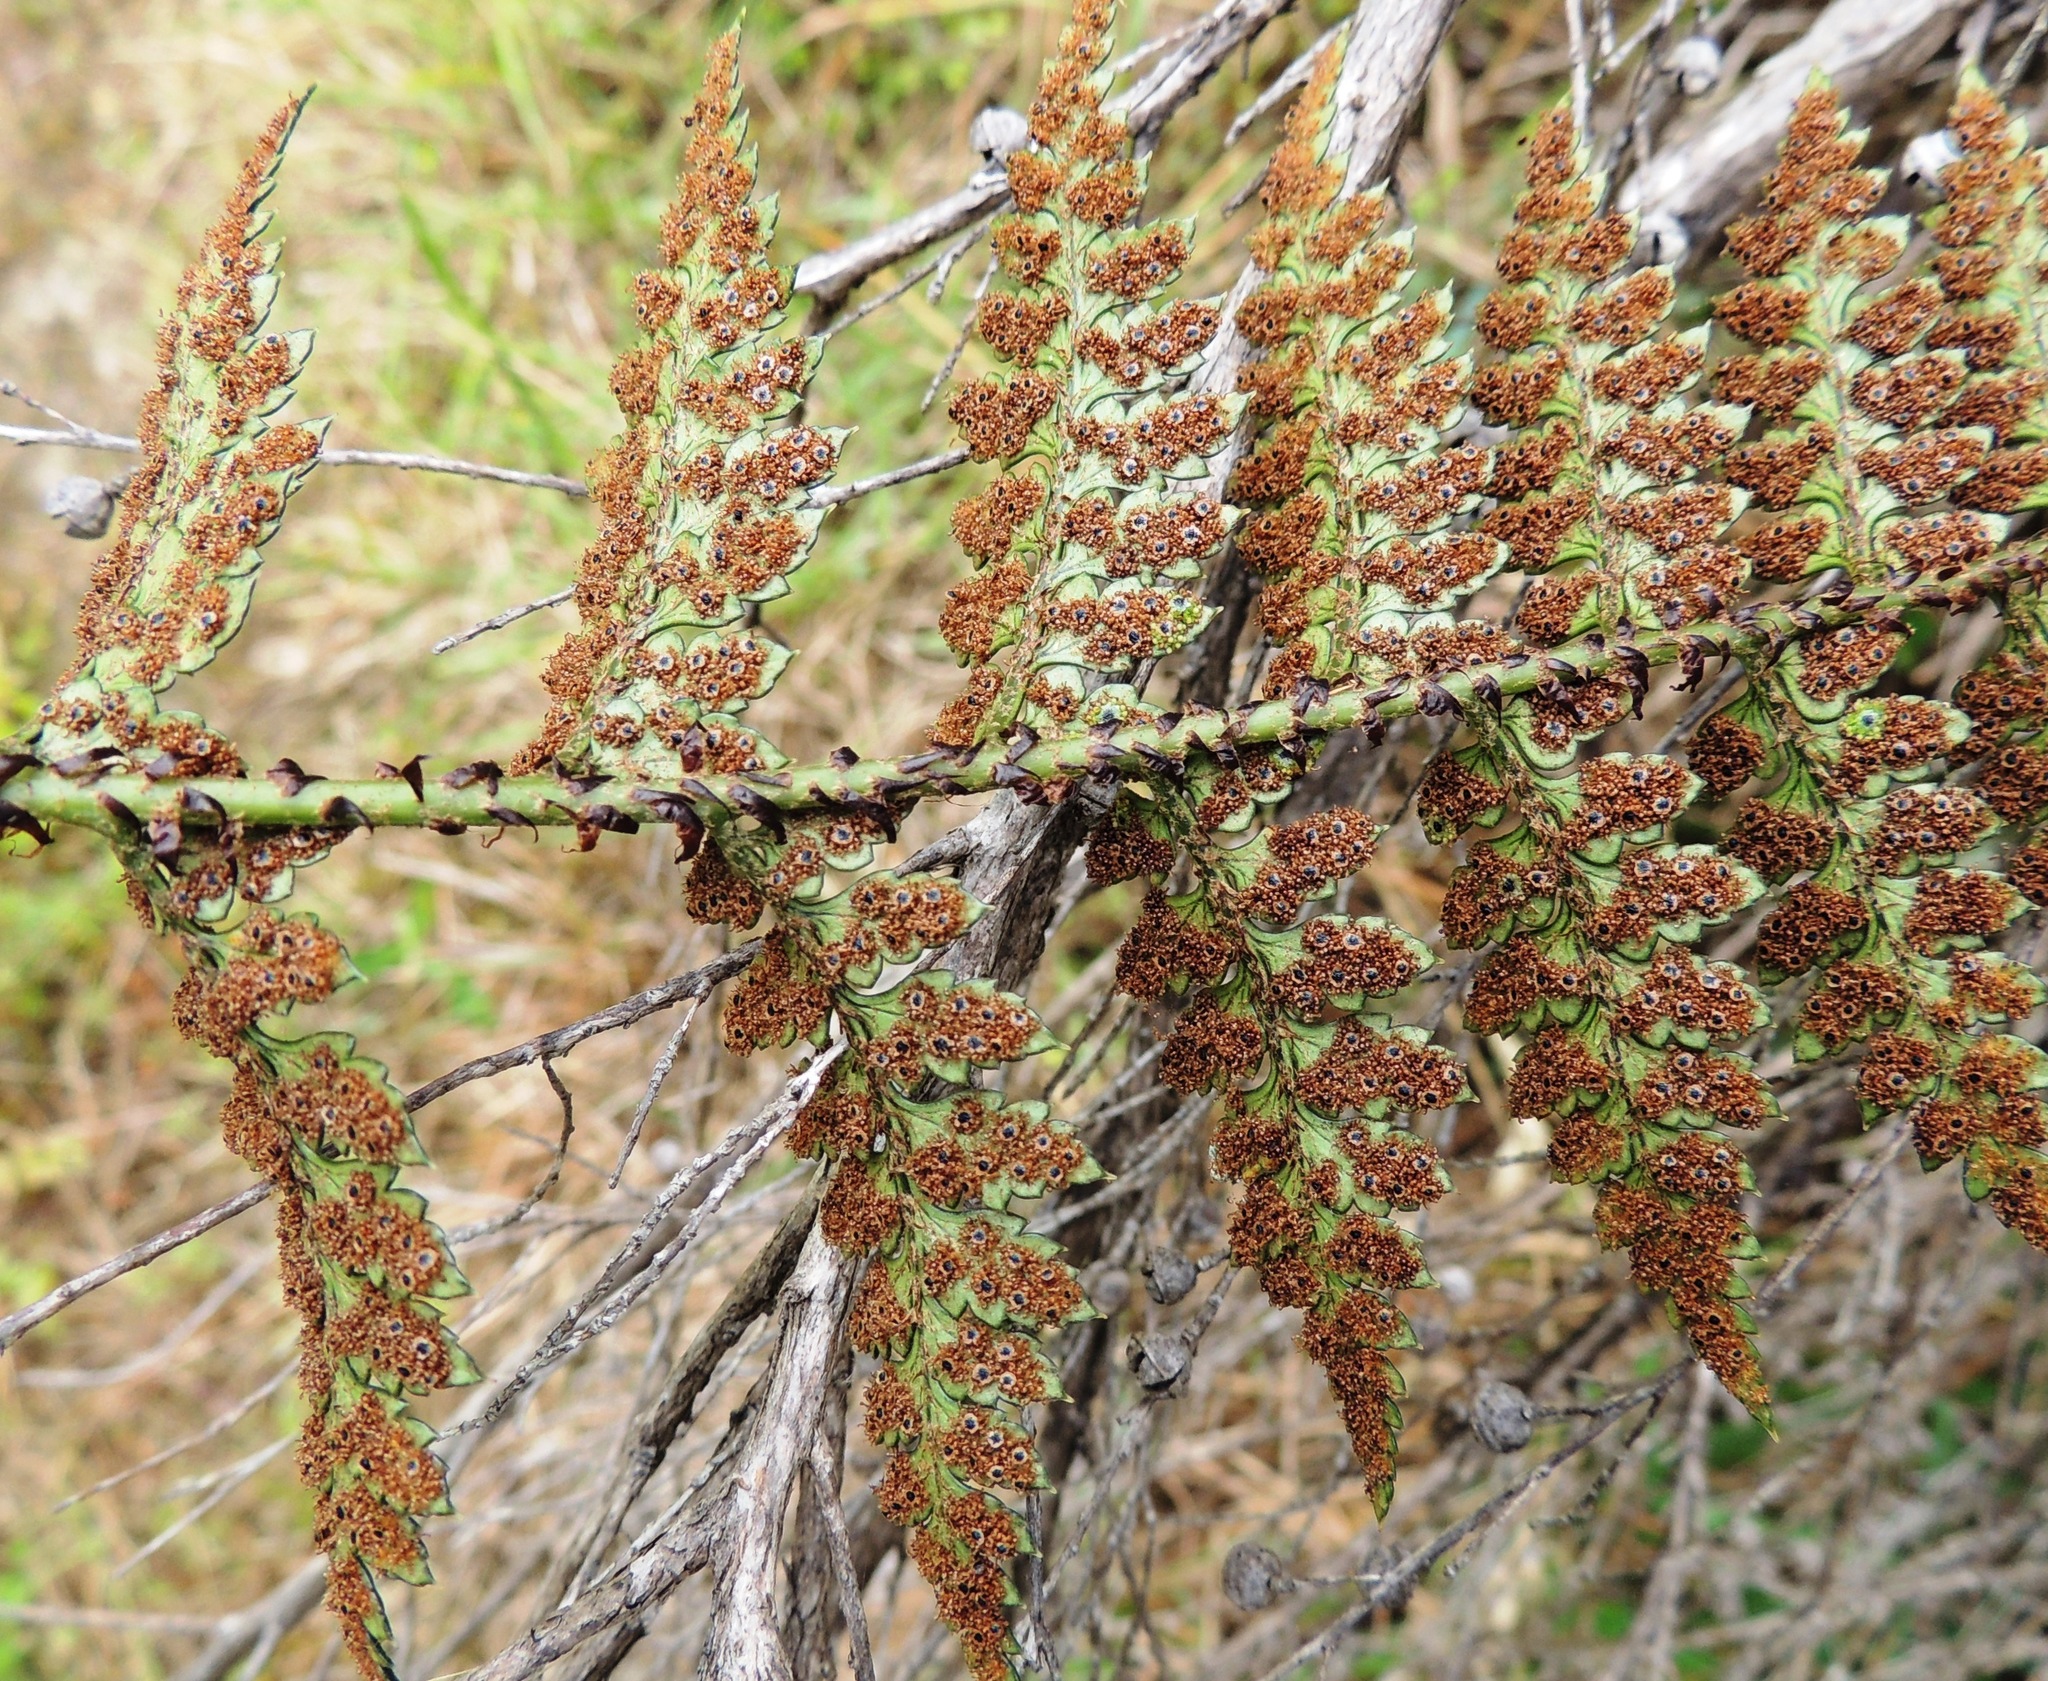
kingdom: Plantae
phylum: Tracheophyta
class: Polypodiopsida
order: Polypodiales
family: Dryopteridaceae
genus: Polystichum
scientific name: Polystichum oculatum
